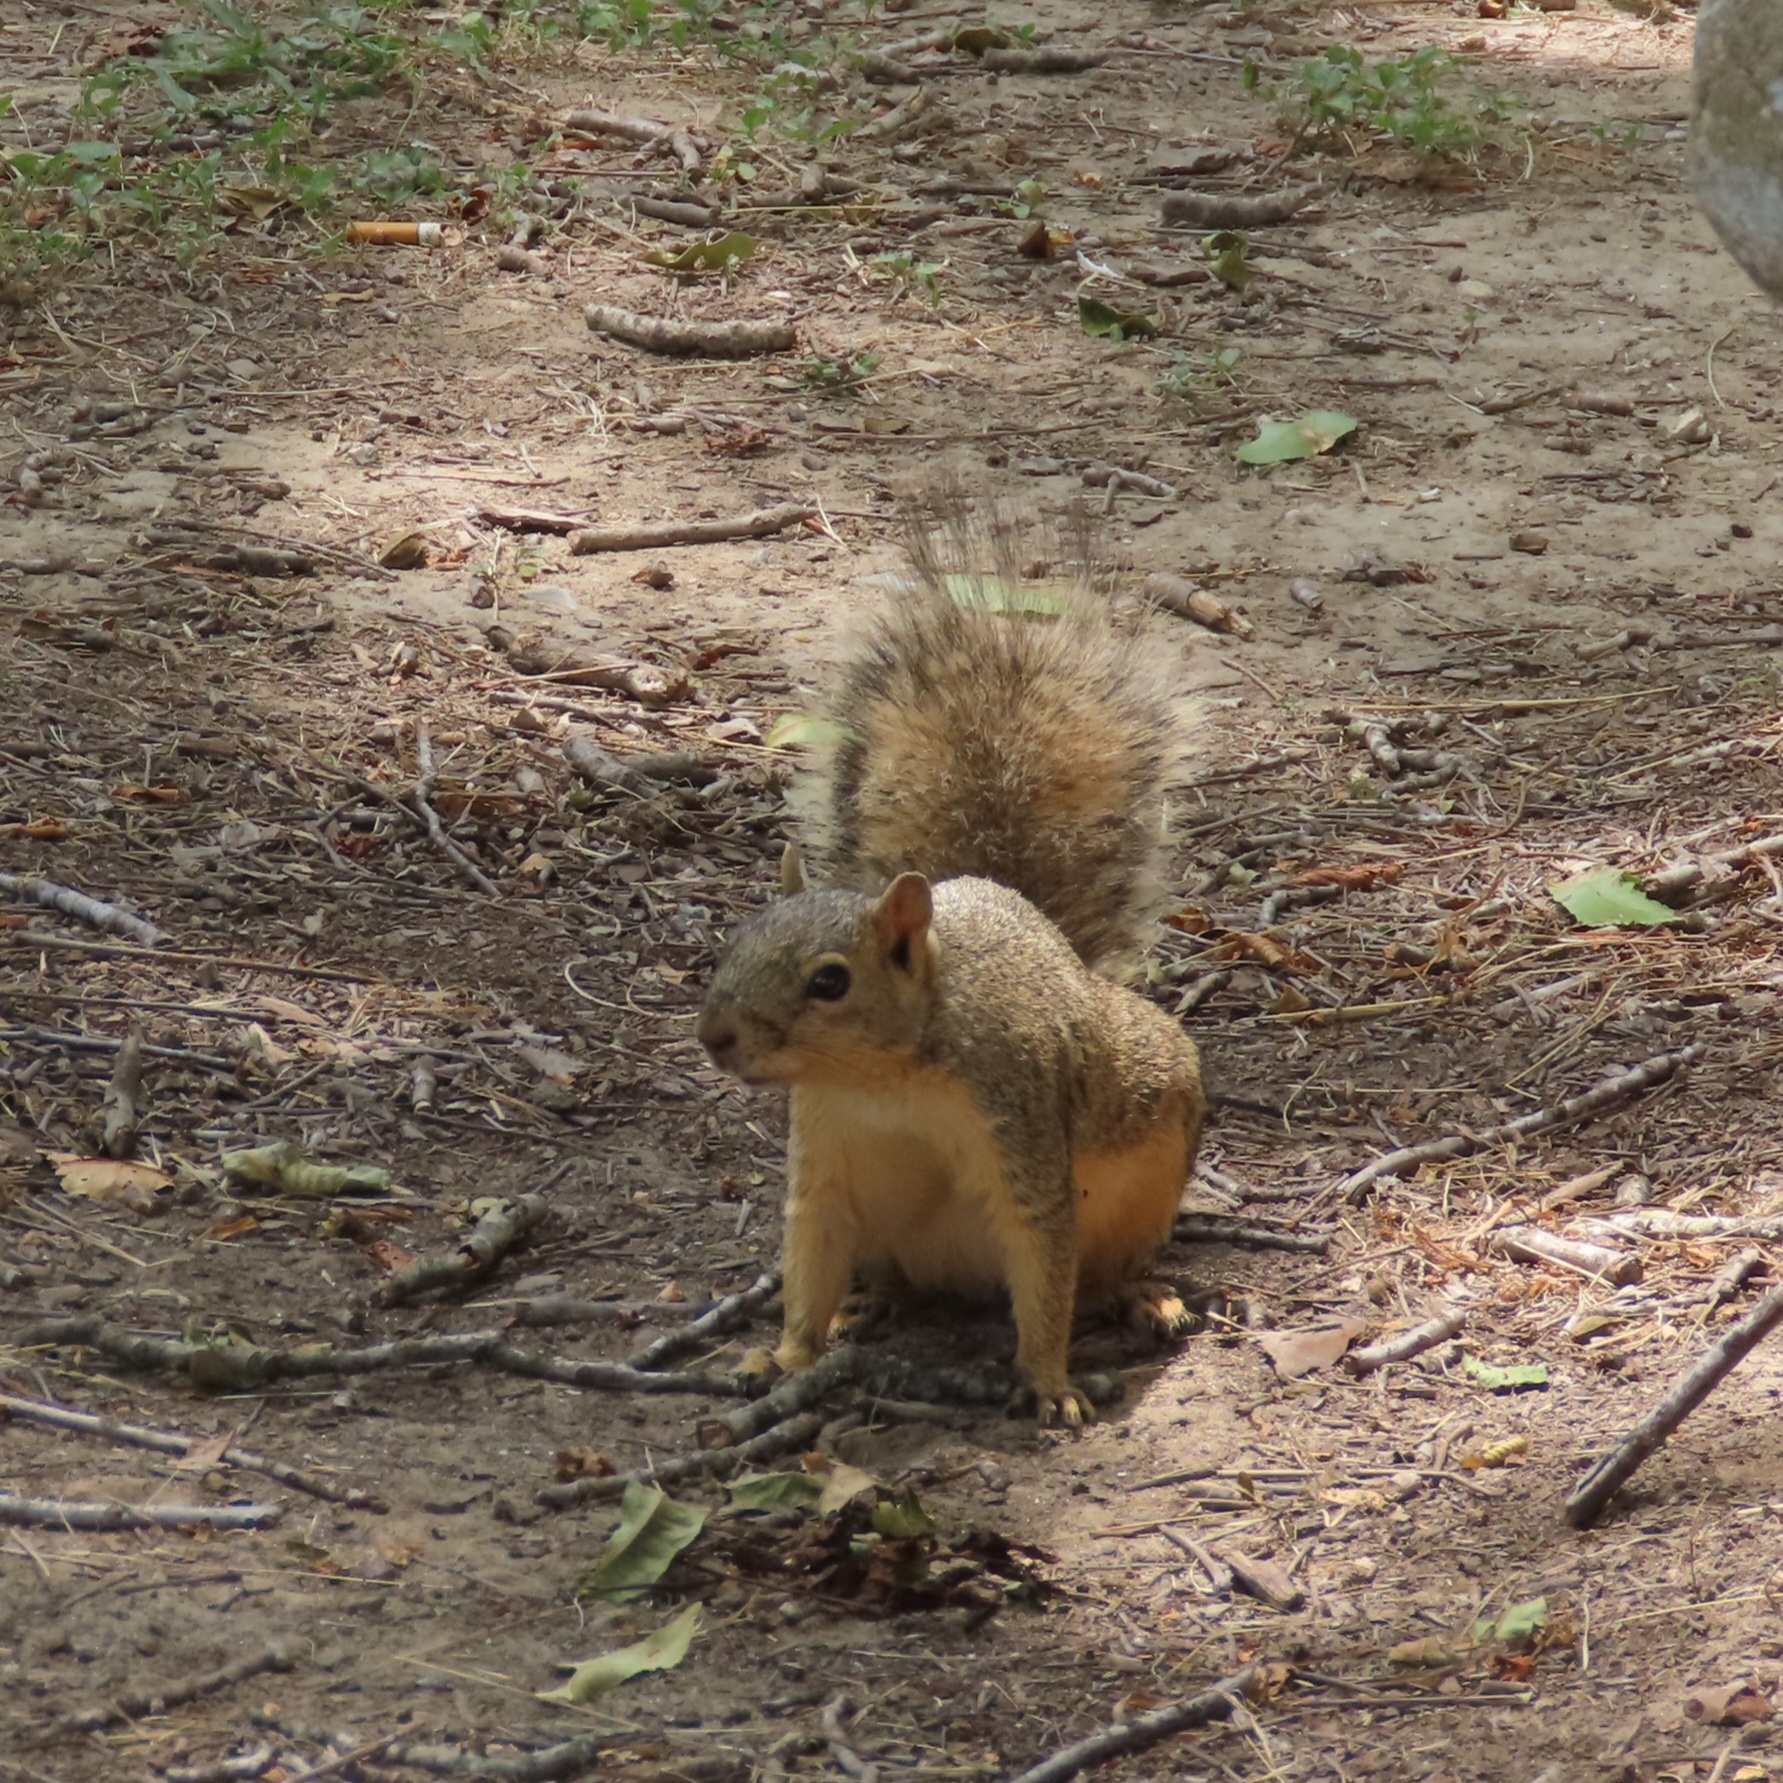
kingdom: Animalia
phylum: Chordata
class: Mammalia
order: Rodentia
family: Sciuridae
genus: Sciurus
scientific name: Sciurus niger
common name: Fox squirrel
